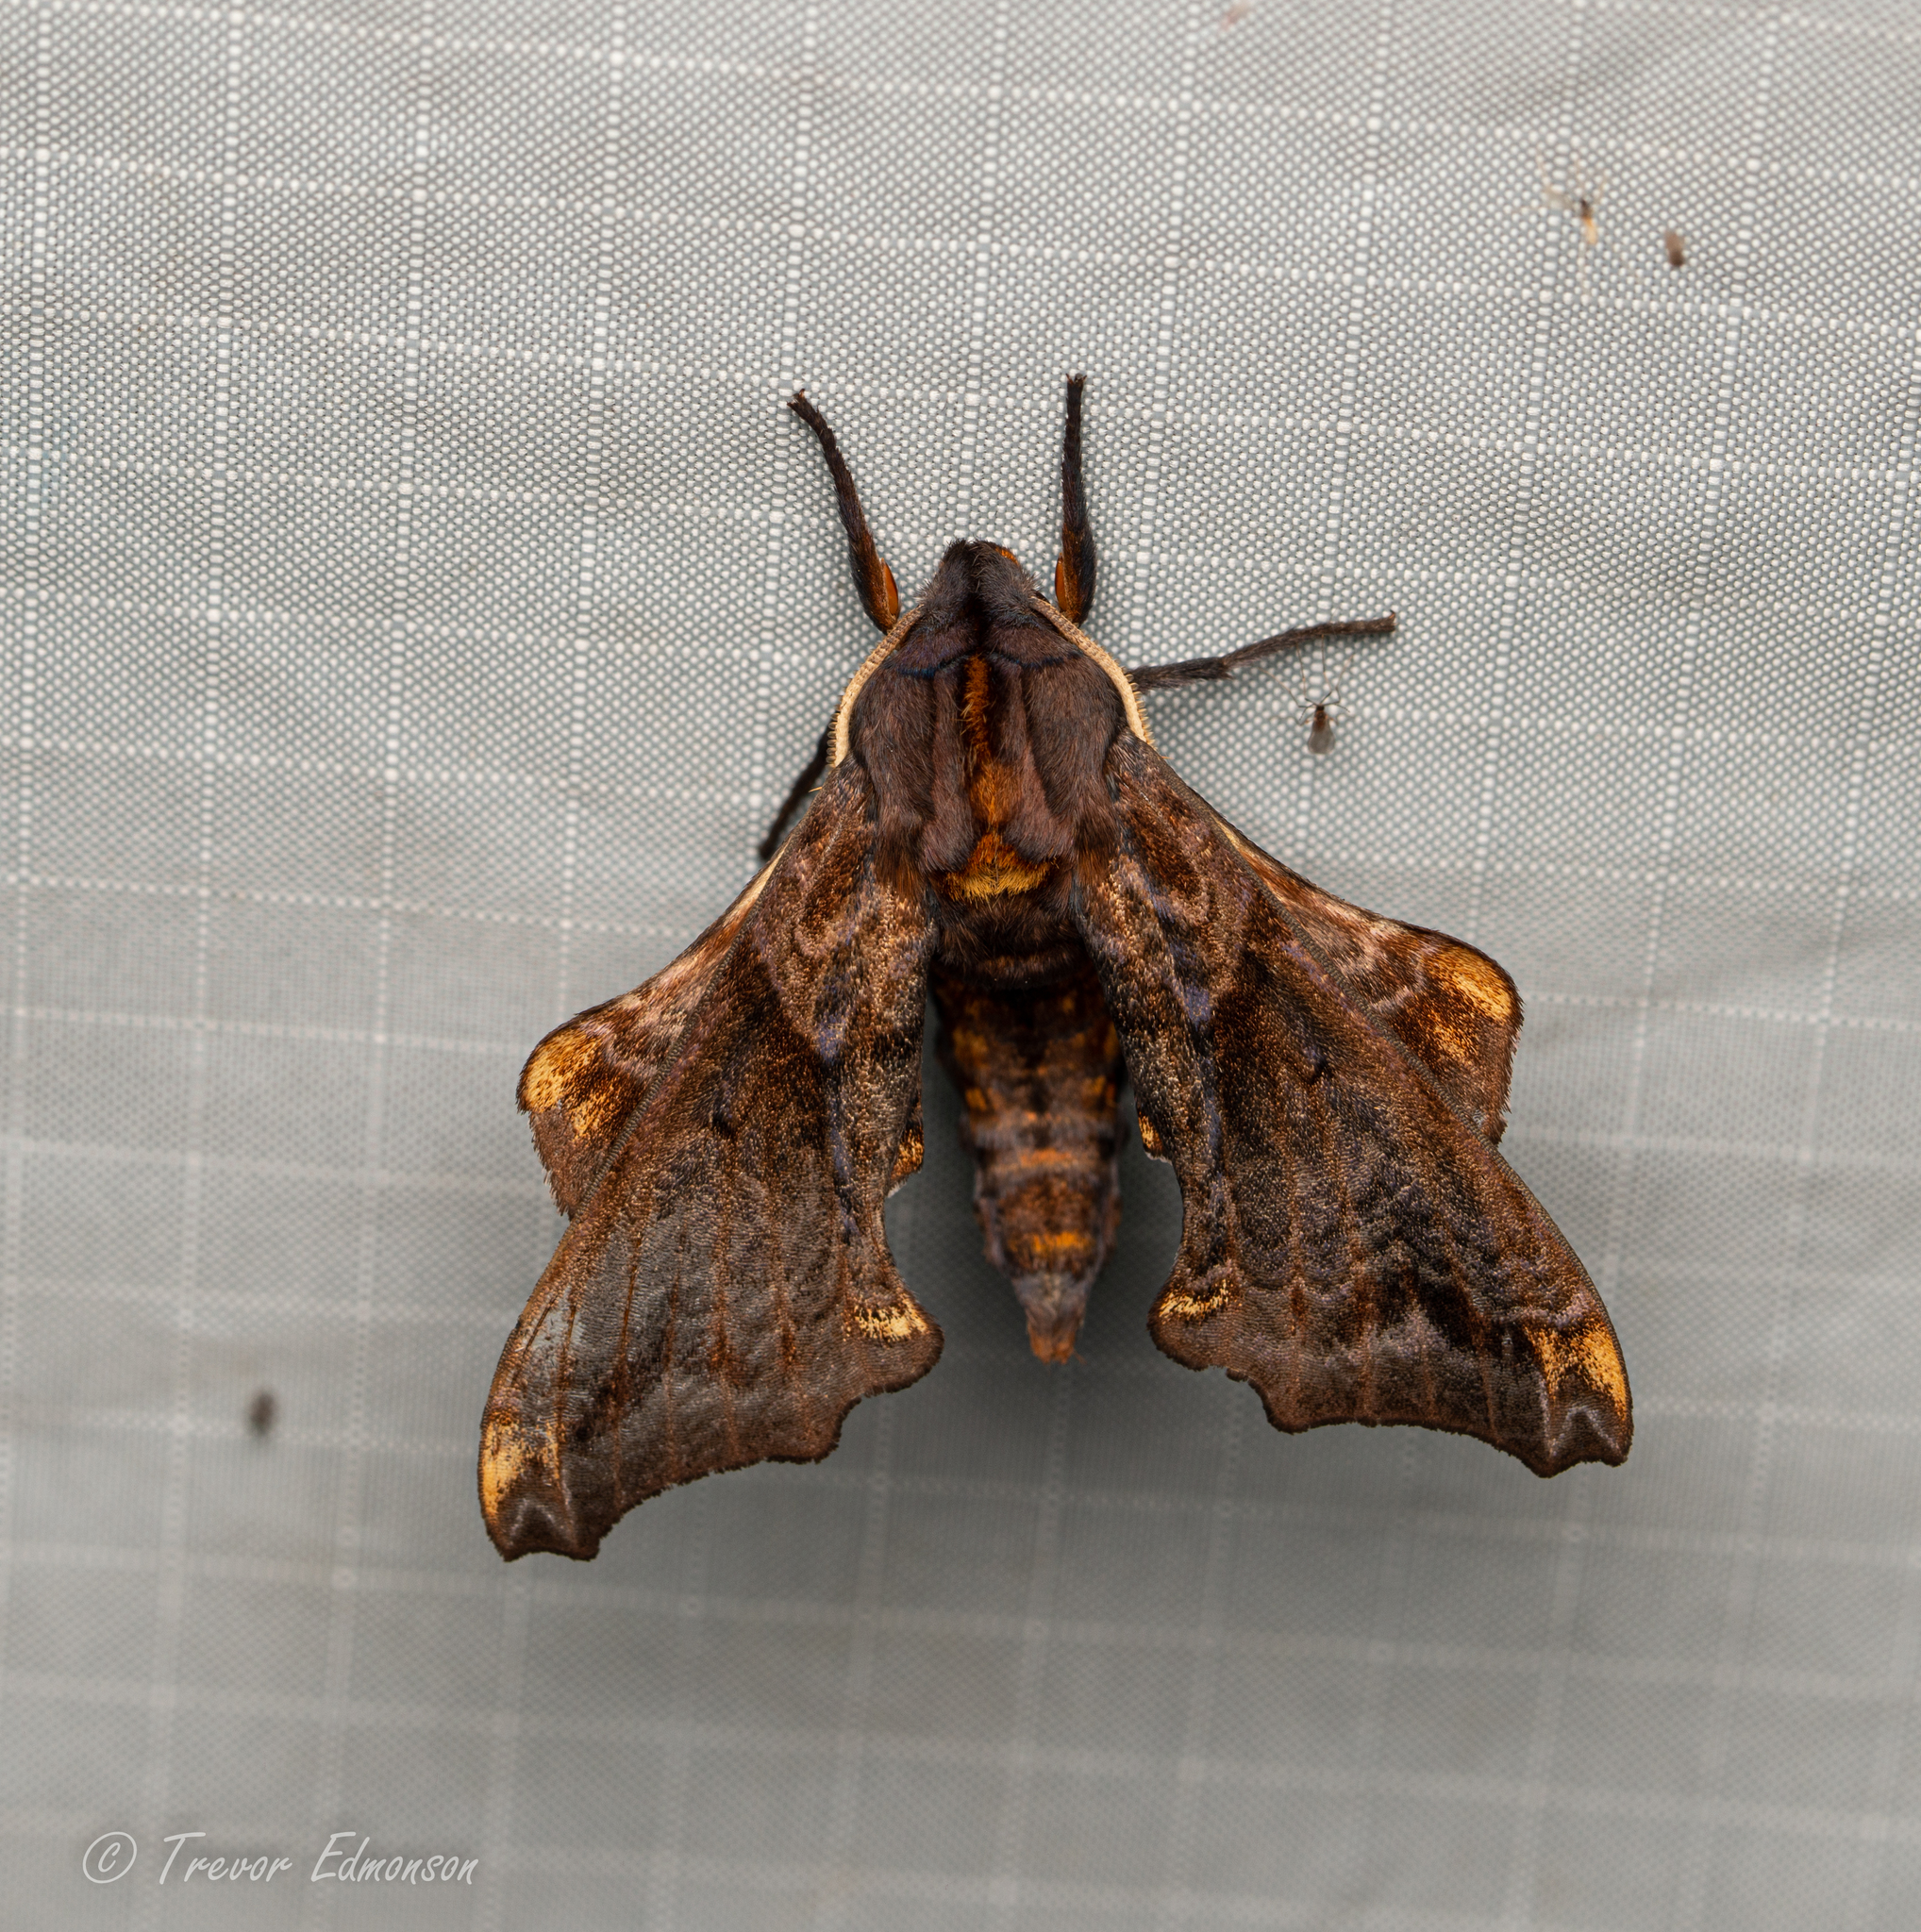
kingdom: Animalia
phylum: Arthropoda
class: Insecta
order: Lepidoptera
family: Sphingidae
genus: Paonias
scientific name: Paonias myops
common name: Small-eyed sphinx
